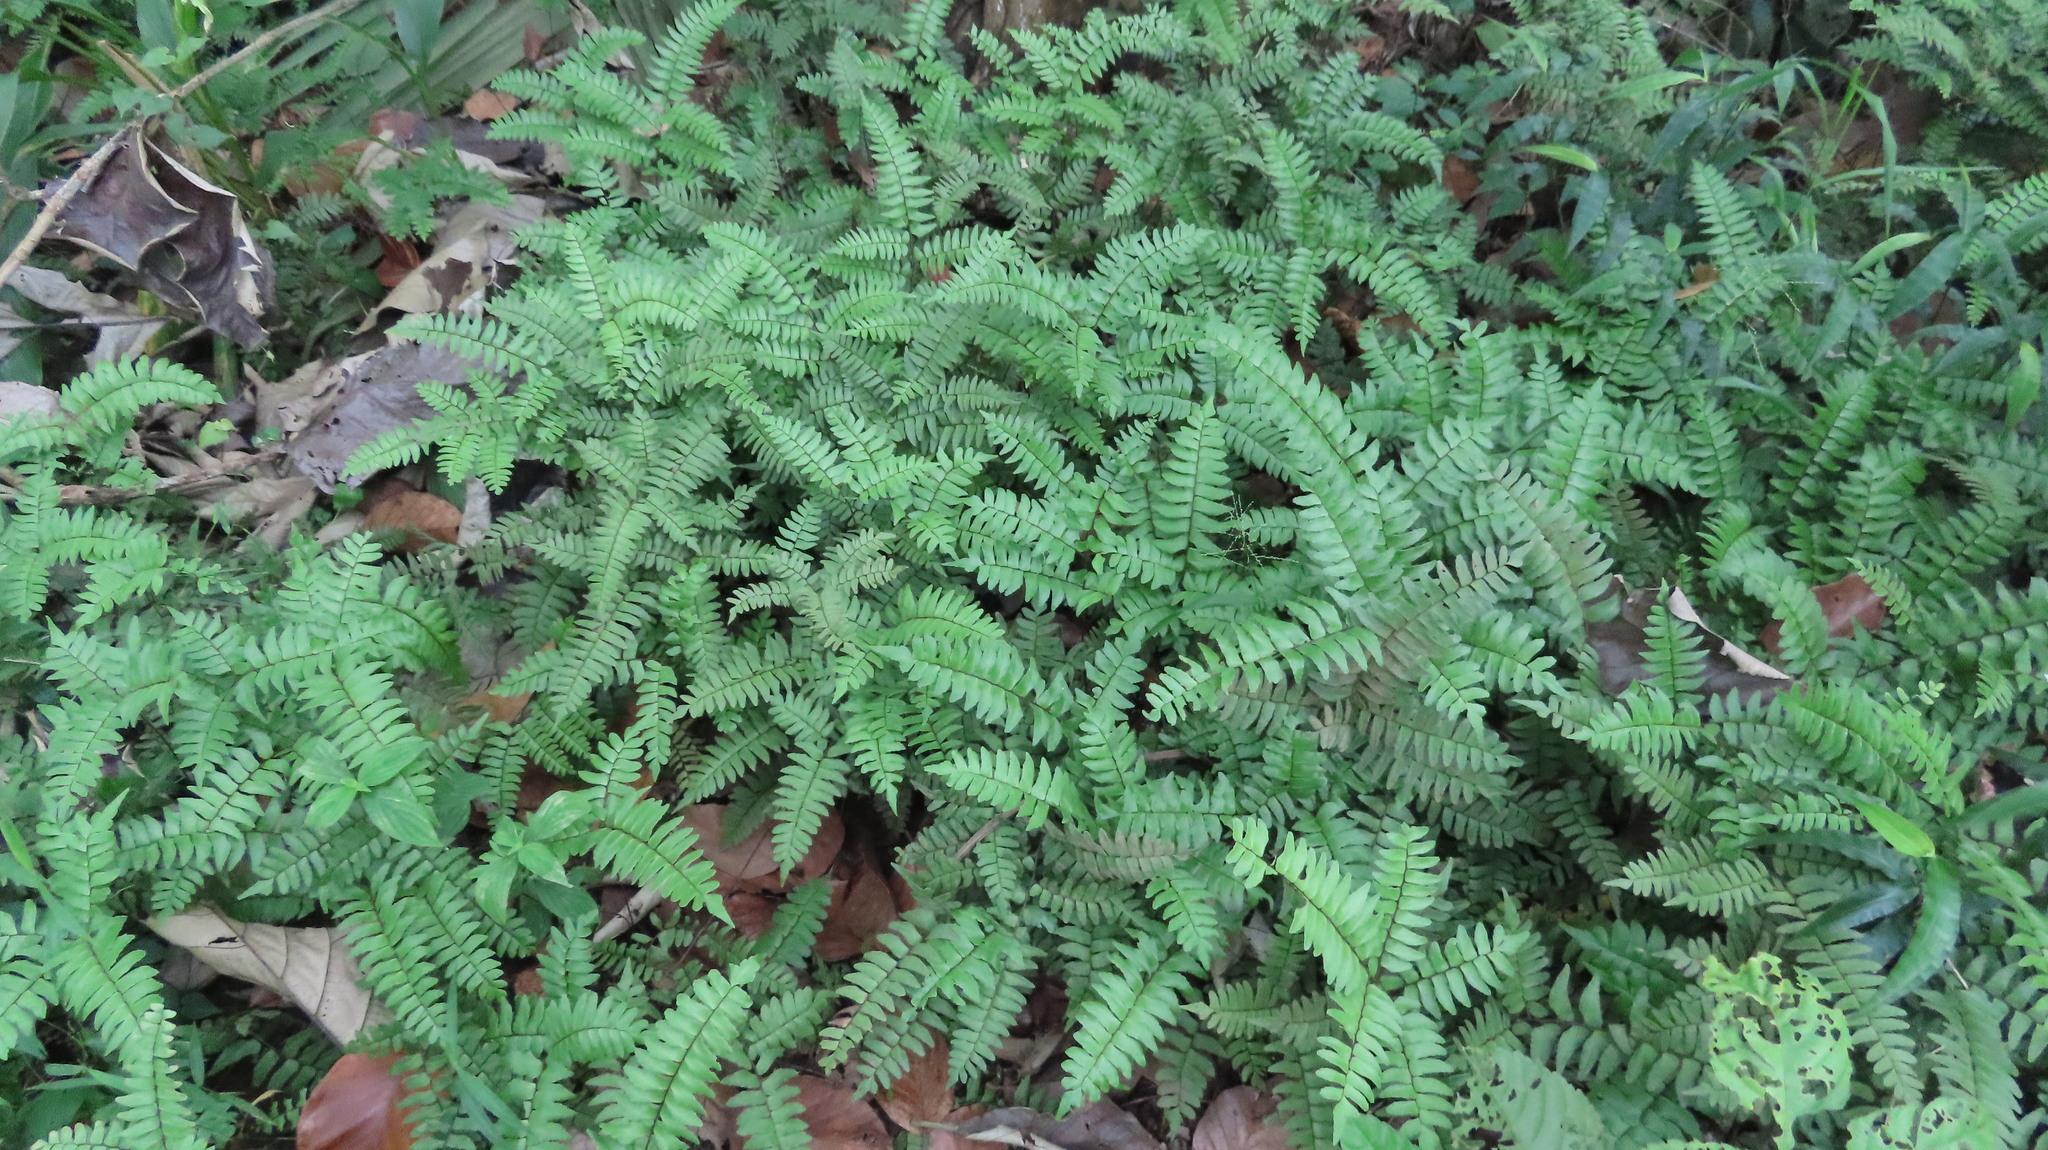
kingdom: Plantae
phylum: Tracheophyta
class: Polypodiopsida
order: Polypodiales
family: Pteridaceae
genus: Adiantum
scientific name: Adiantum latifolium
